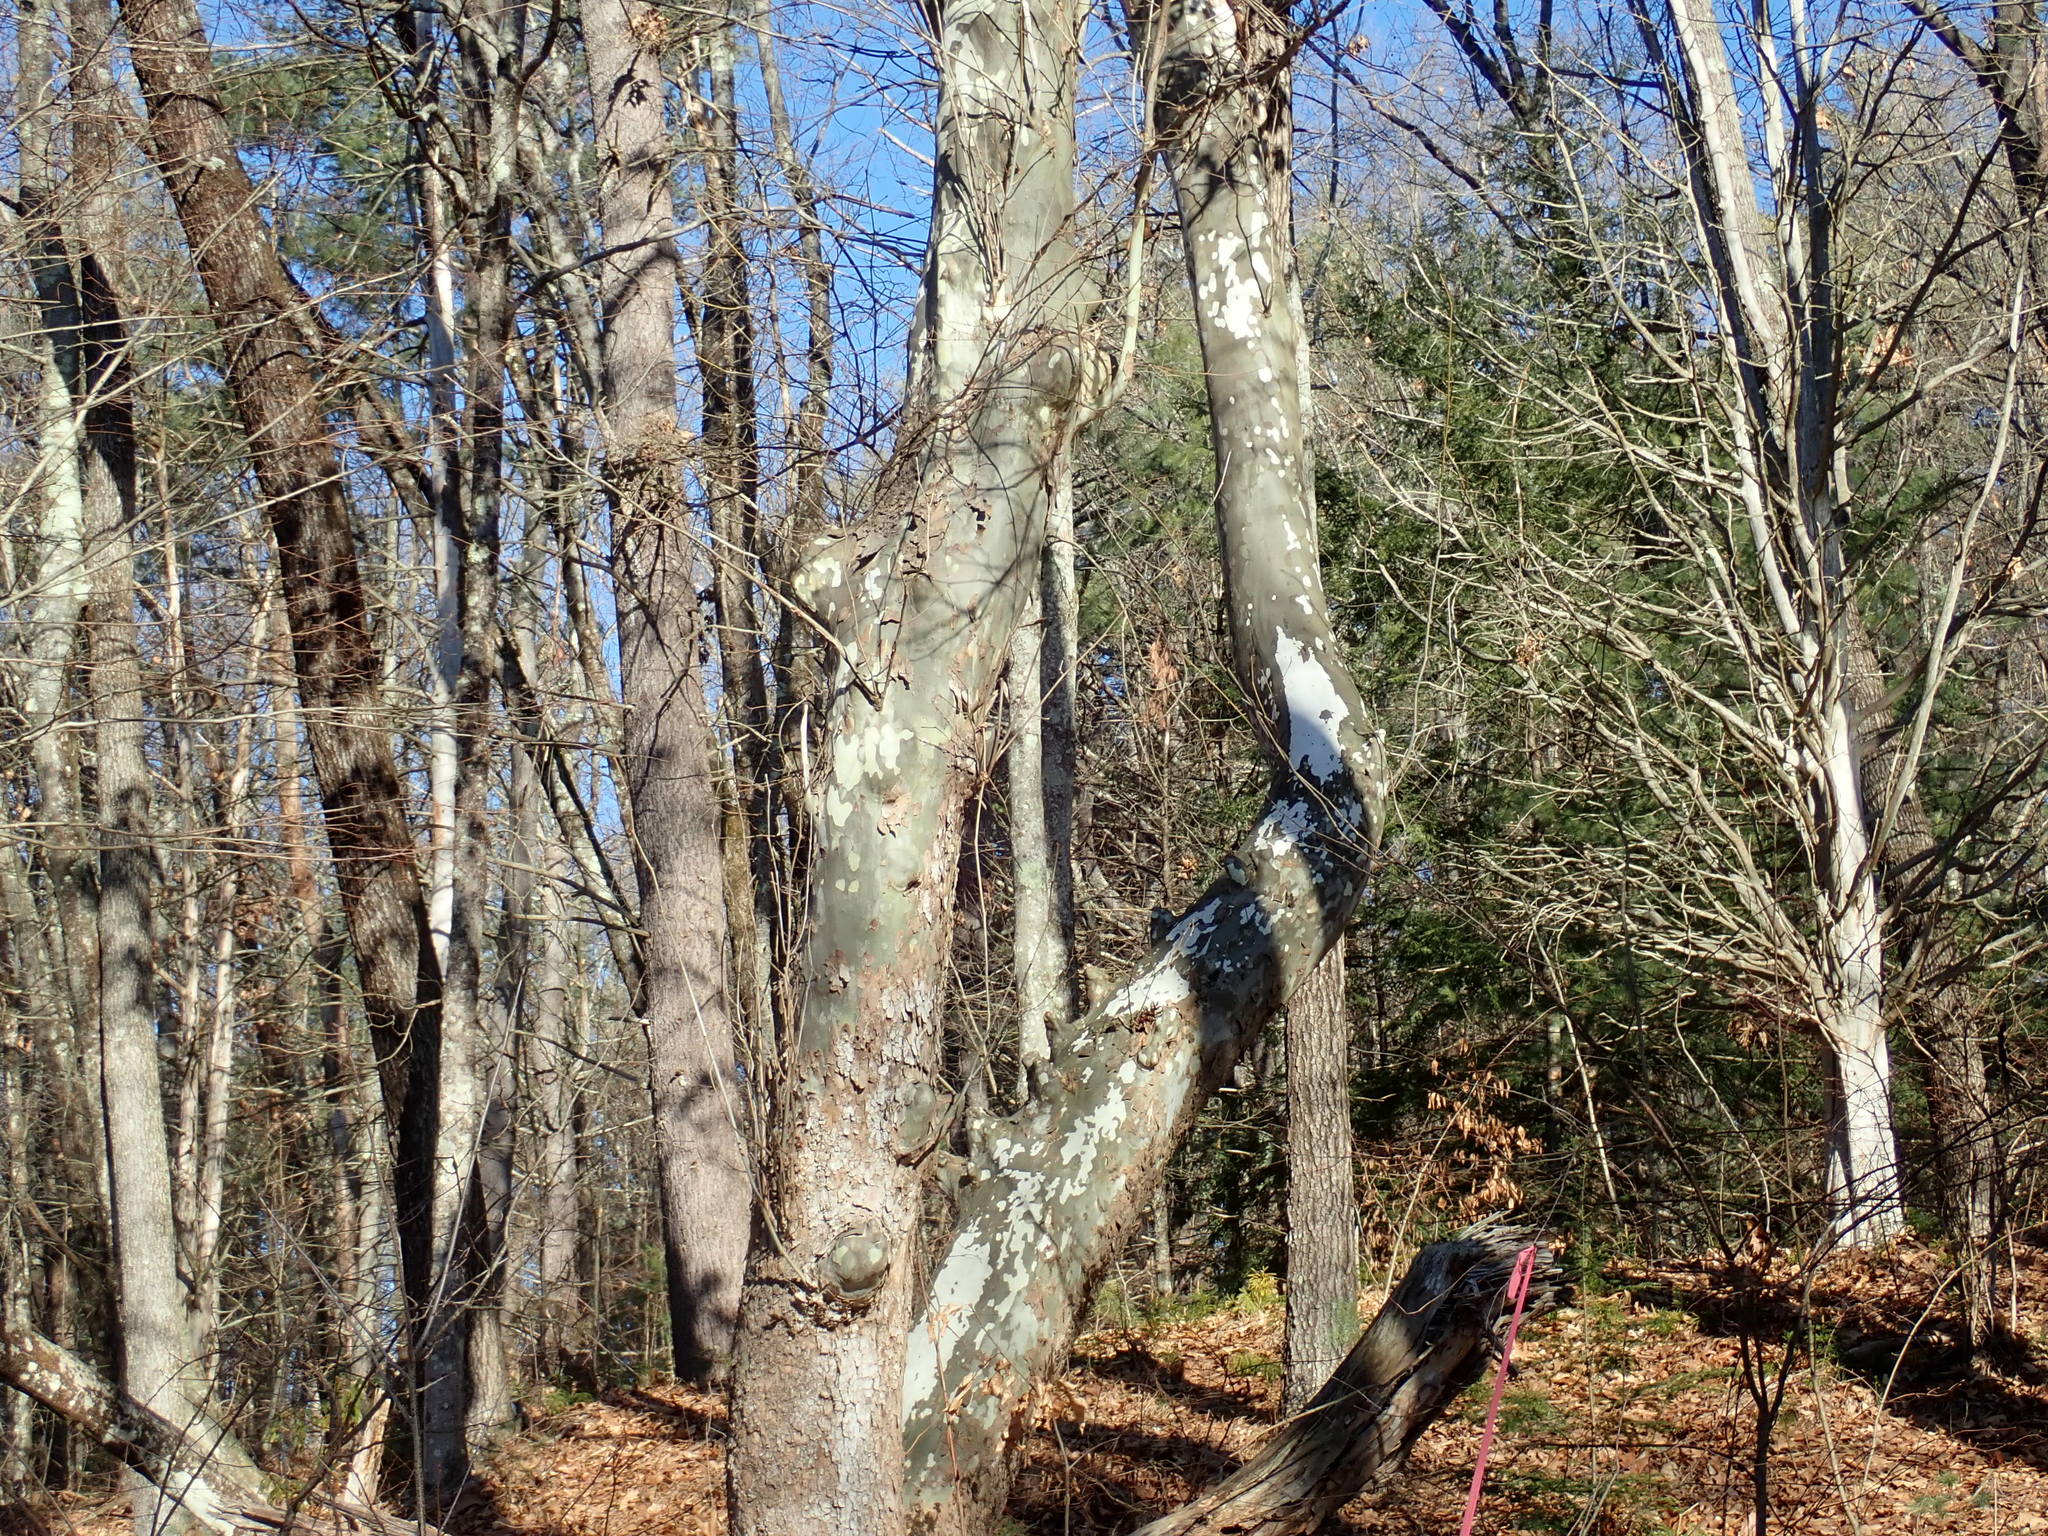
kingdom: Plantae
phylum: Tracheophyta
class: Magnoliopsida
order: Proteales
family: Platanaceae
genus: Platanus
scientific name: Platanus occidentalis
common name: American sycamore
